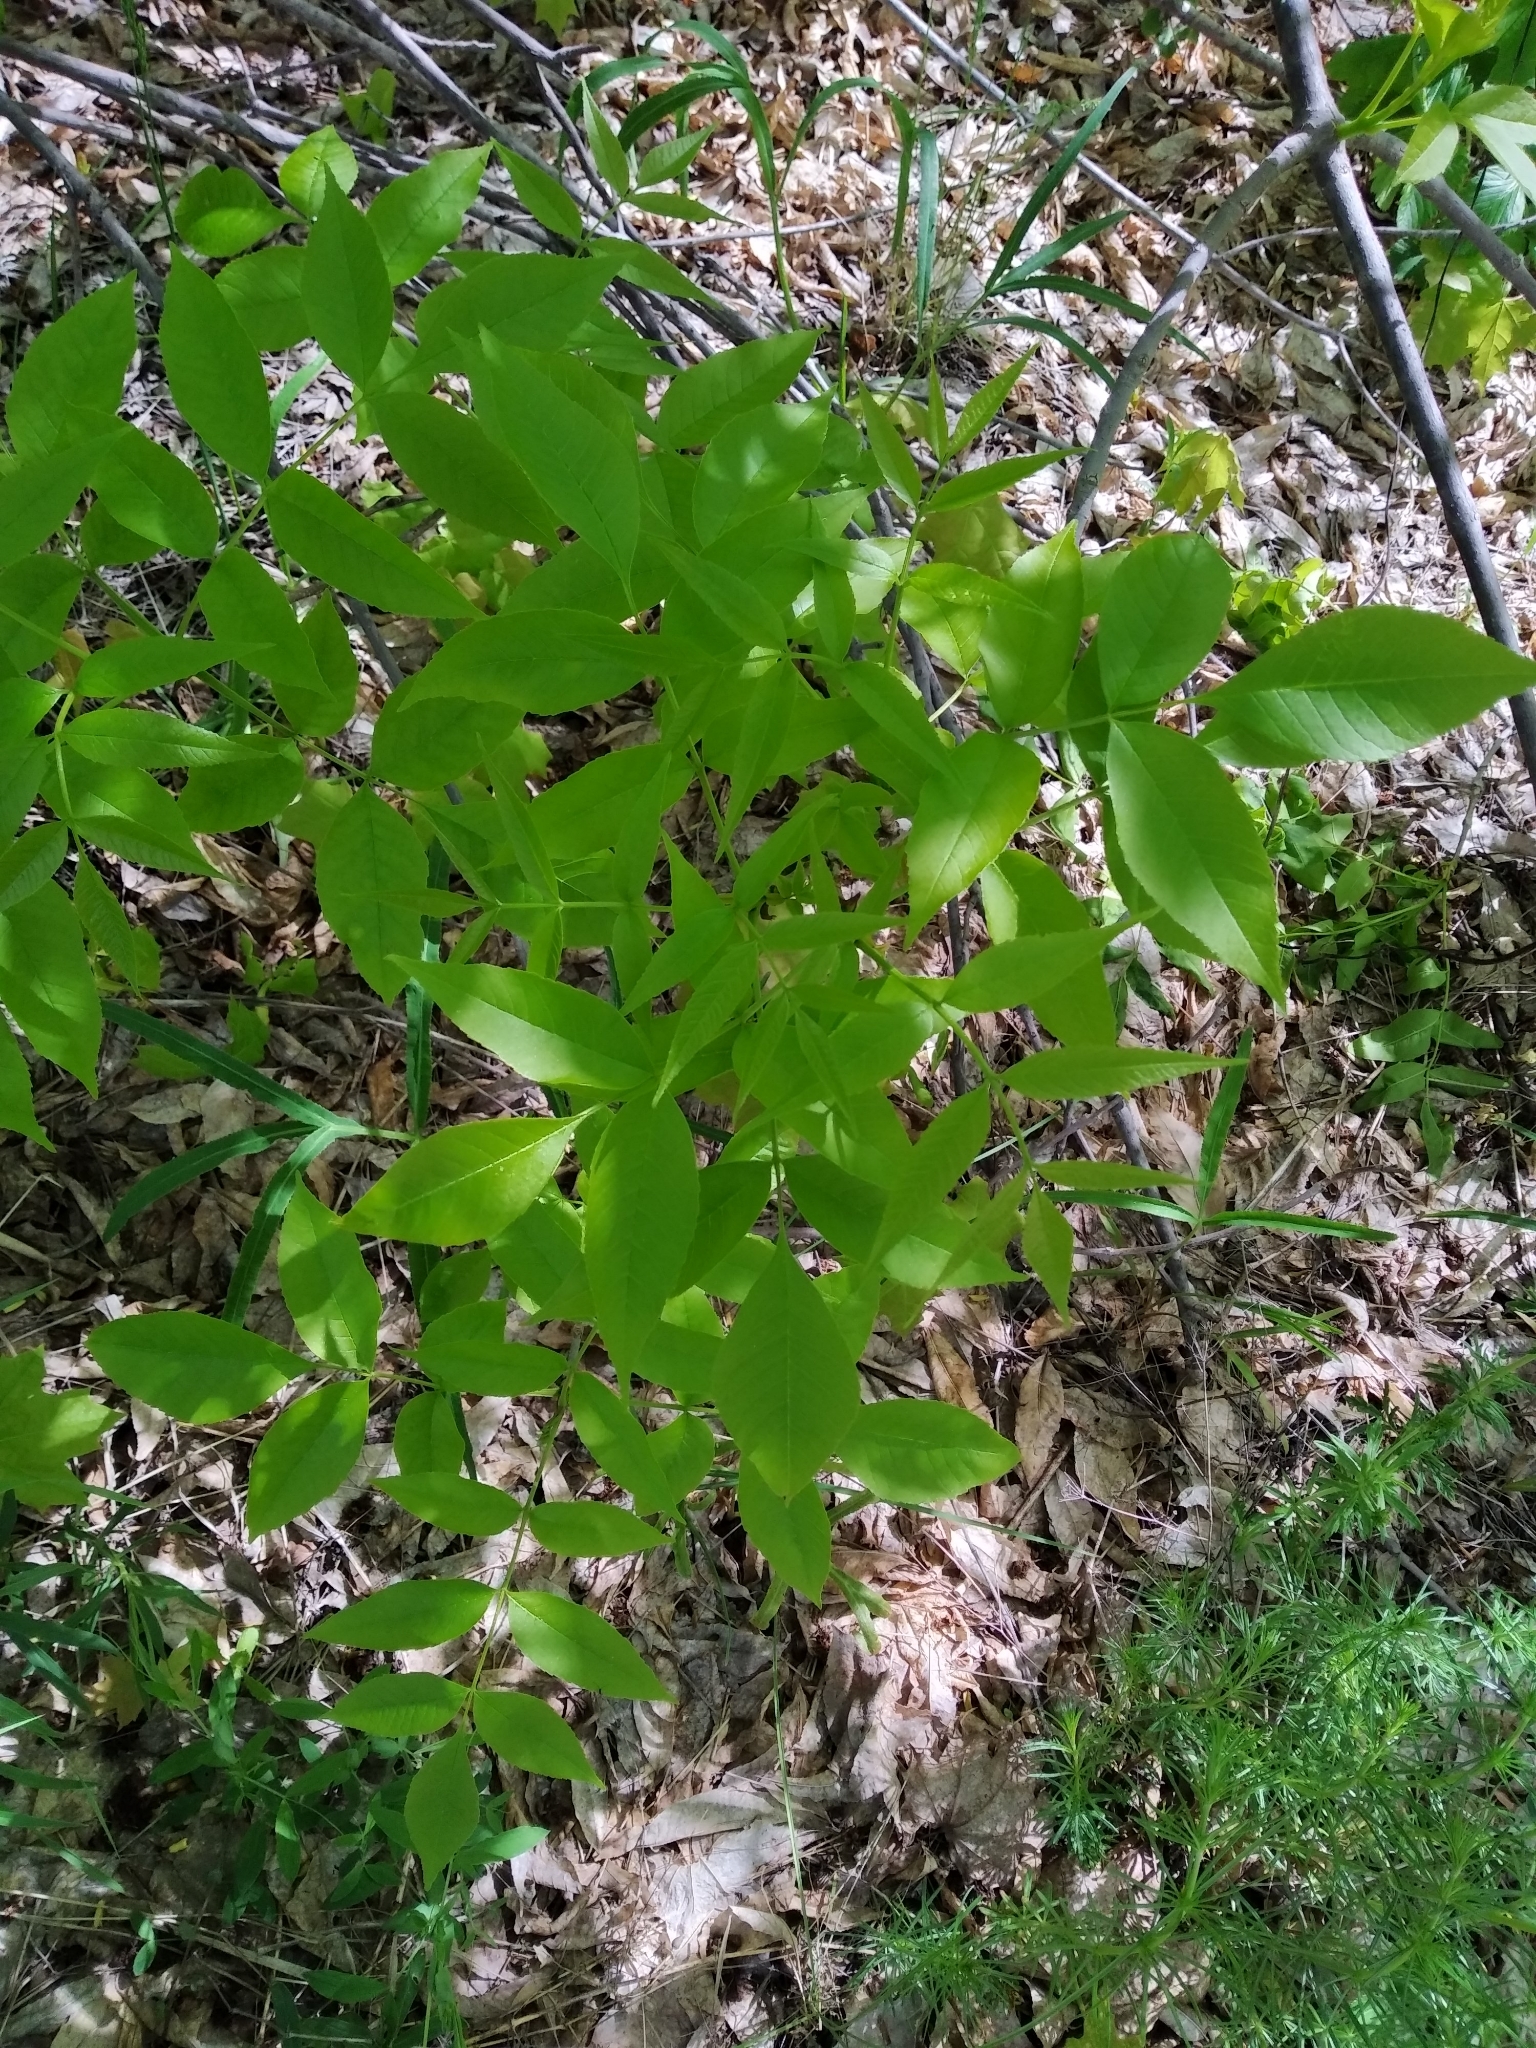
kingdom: Plantae
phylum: Tracheophyta
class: Magnoliopsida
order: Lamiales
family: Oleaceae
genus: Fraxinus
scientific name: Fraxinus pennsylvanica
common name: Green ash
